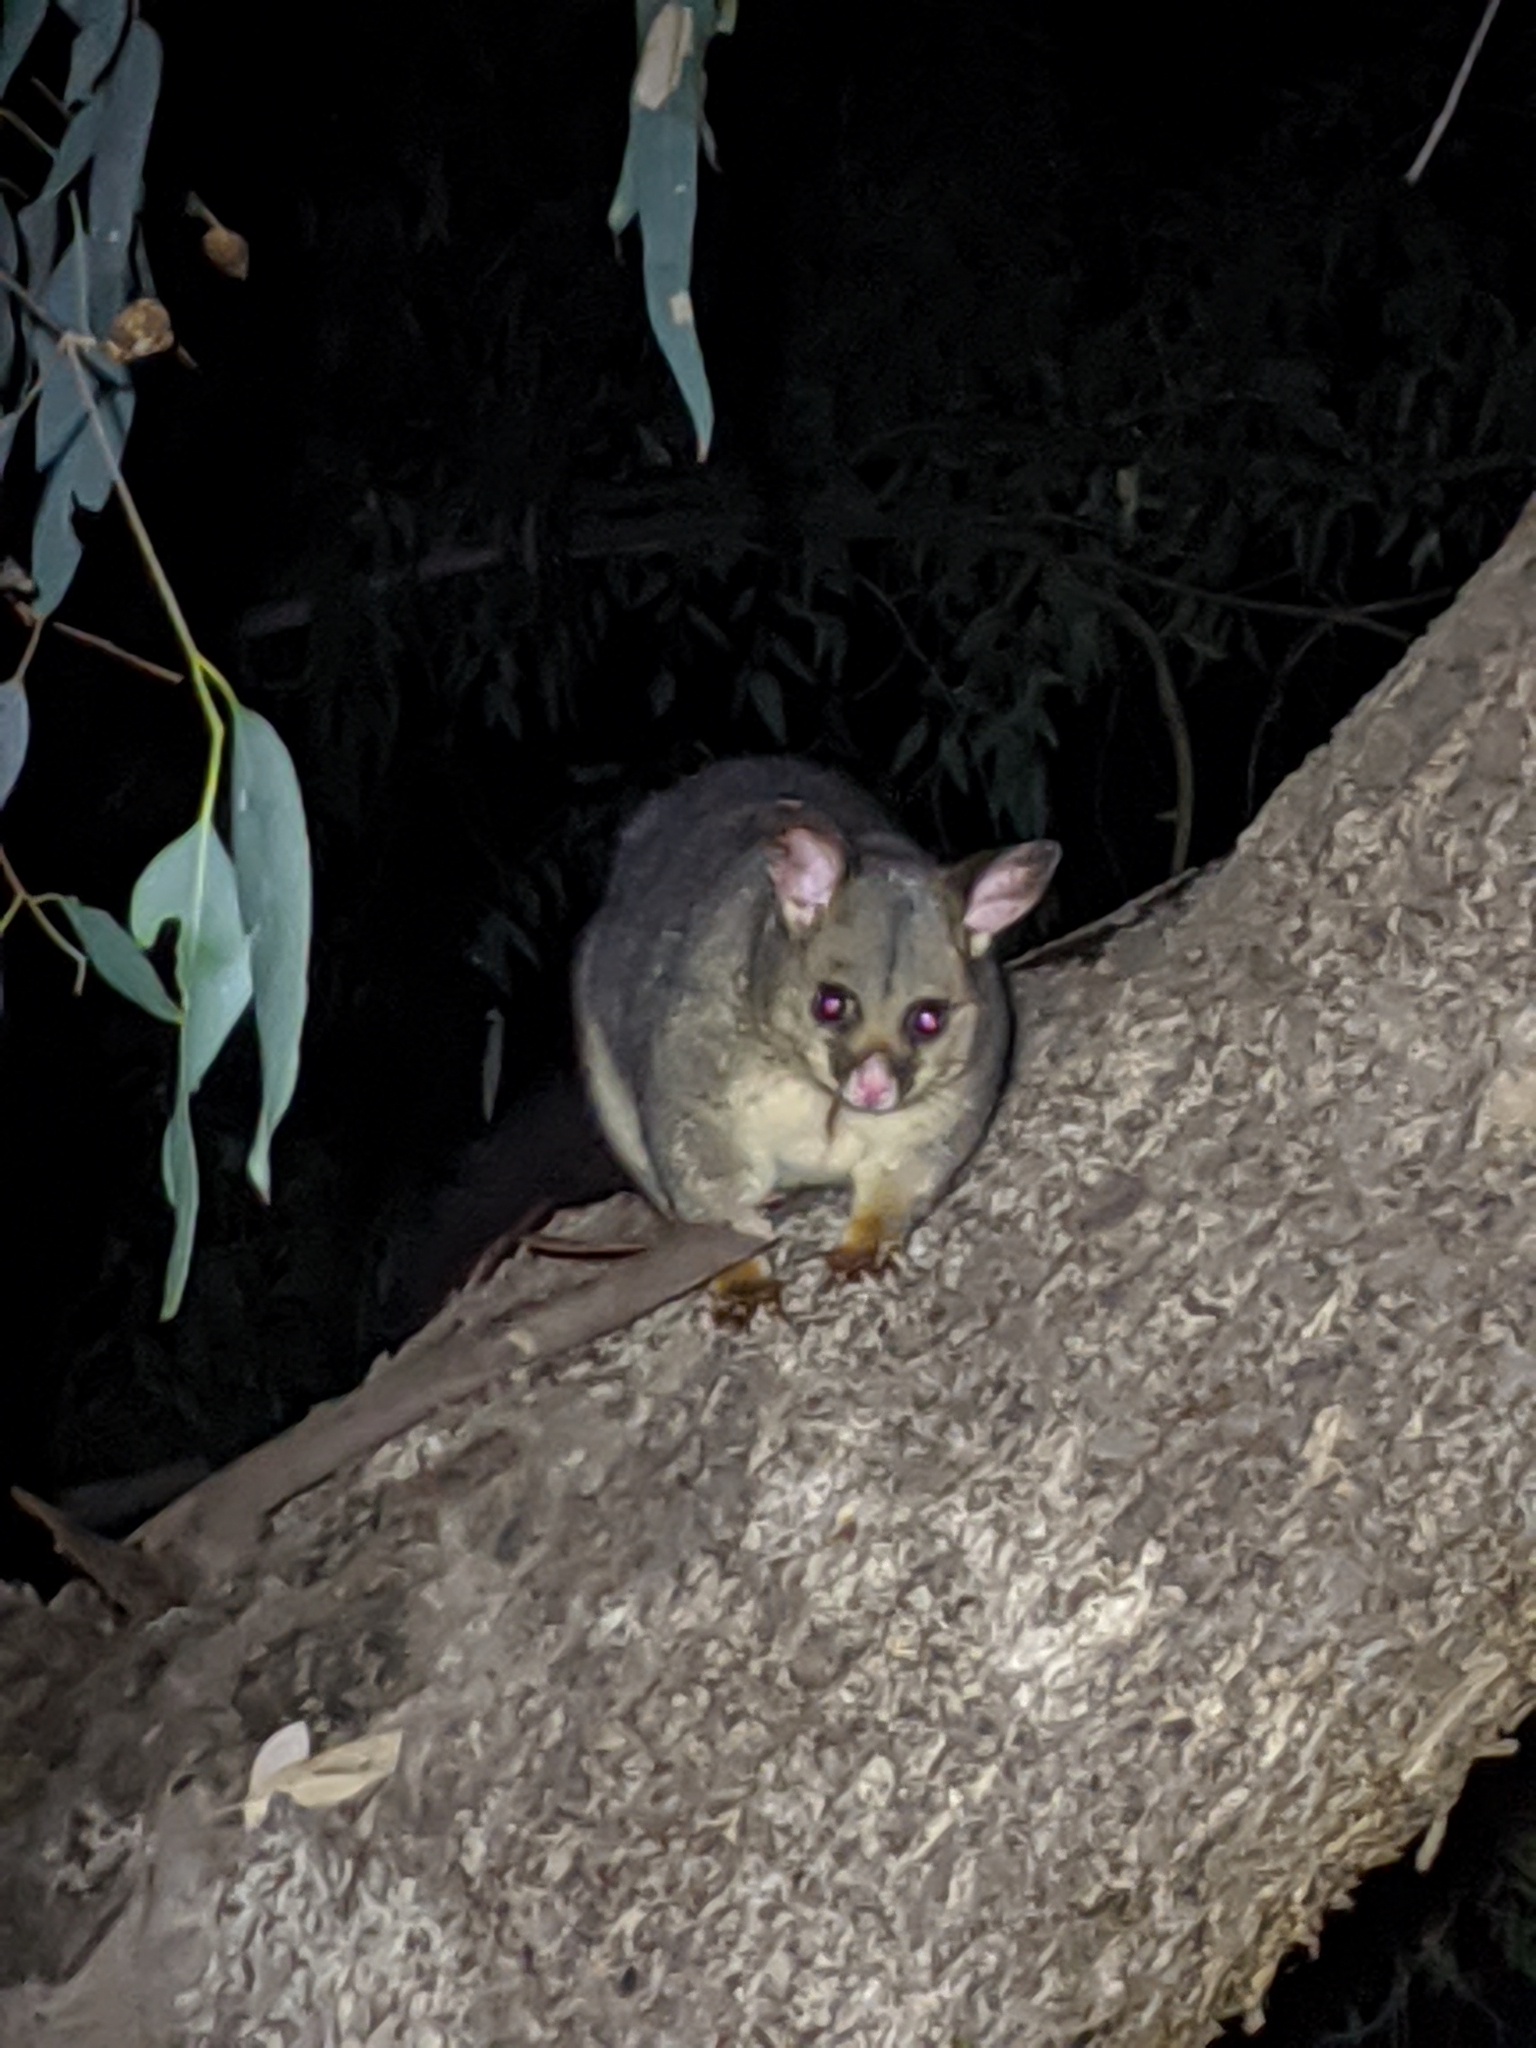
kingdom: Animalia
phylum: Chordata
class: Mammalia
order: Diprotodontia
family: Phalangeridae
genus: Trichosurus
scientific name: Trichosurus vulpecula
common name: Common brushtail
